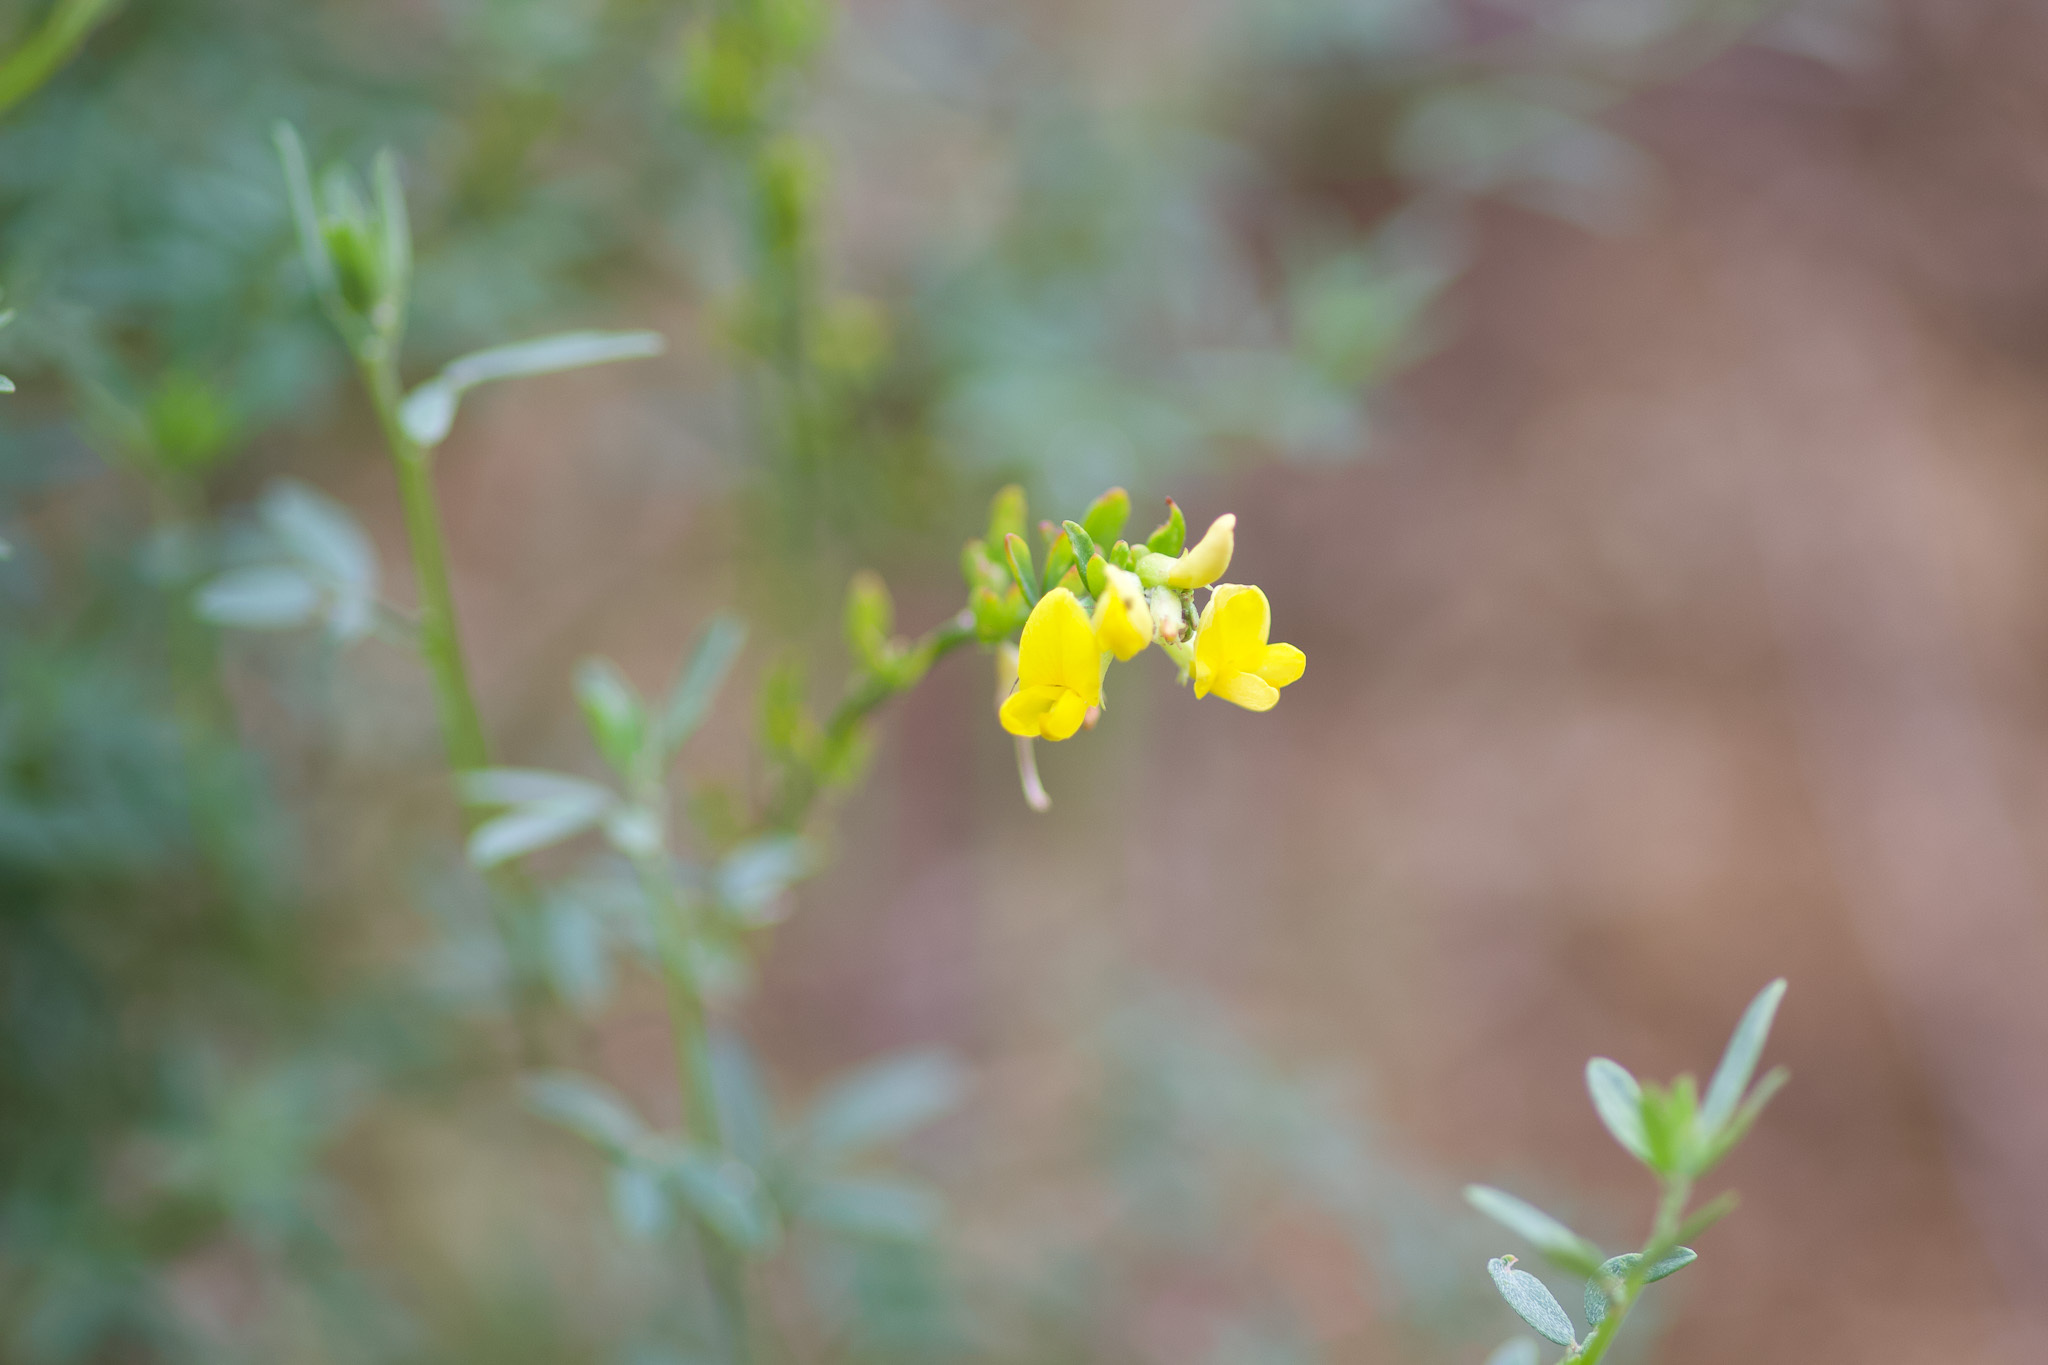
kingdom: Plantae
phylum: Tracheophyta
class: Magnoliopsida
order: Fabales
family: Fabaceae
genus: Acmispon
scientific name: Acmispon glaber
